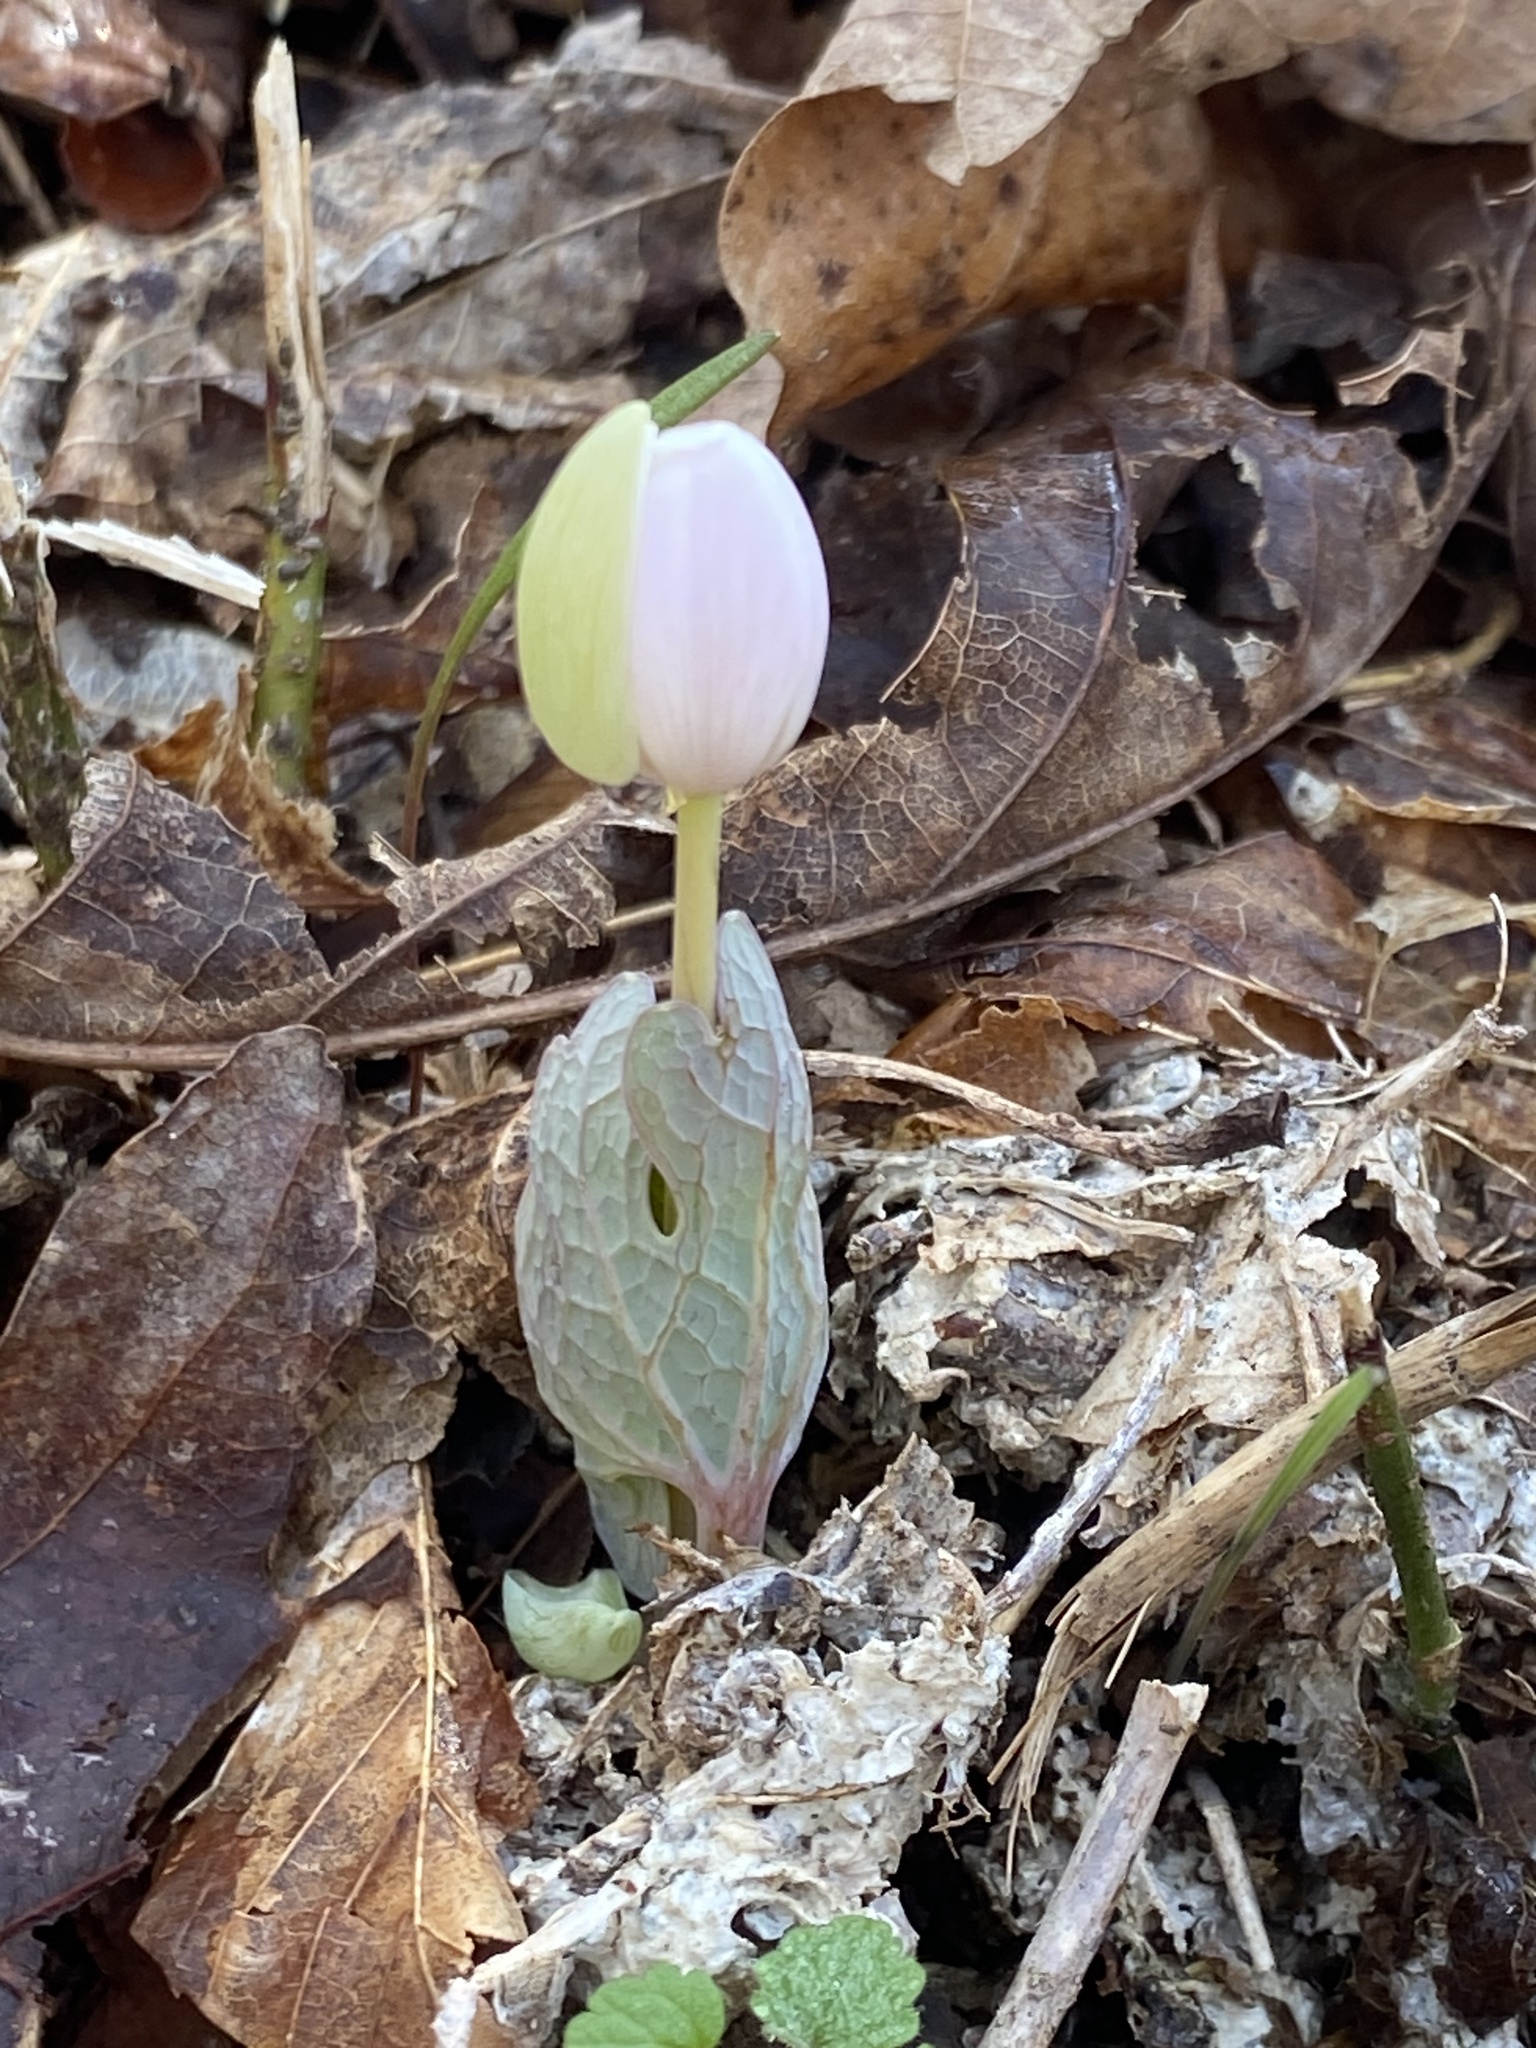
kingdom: Plantae
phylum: Tracheophyta
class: Magnoliopsida
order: Ranunculales
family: Papaveraceae
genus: Sanguinaria
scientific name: Sanguinaria canadensis
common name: Bloodroot
